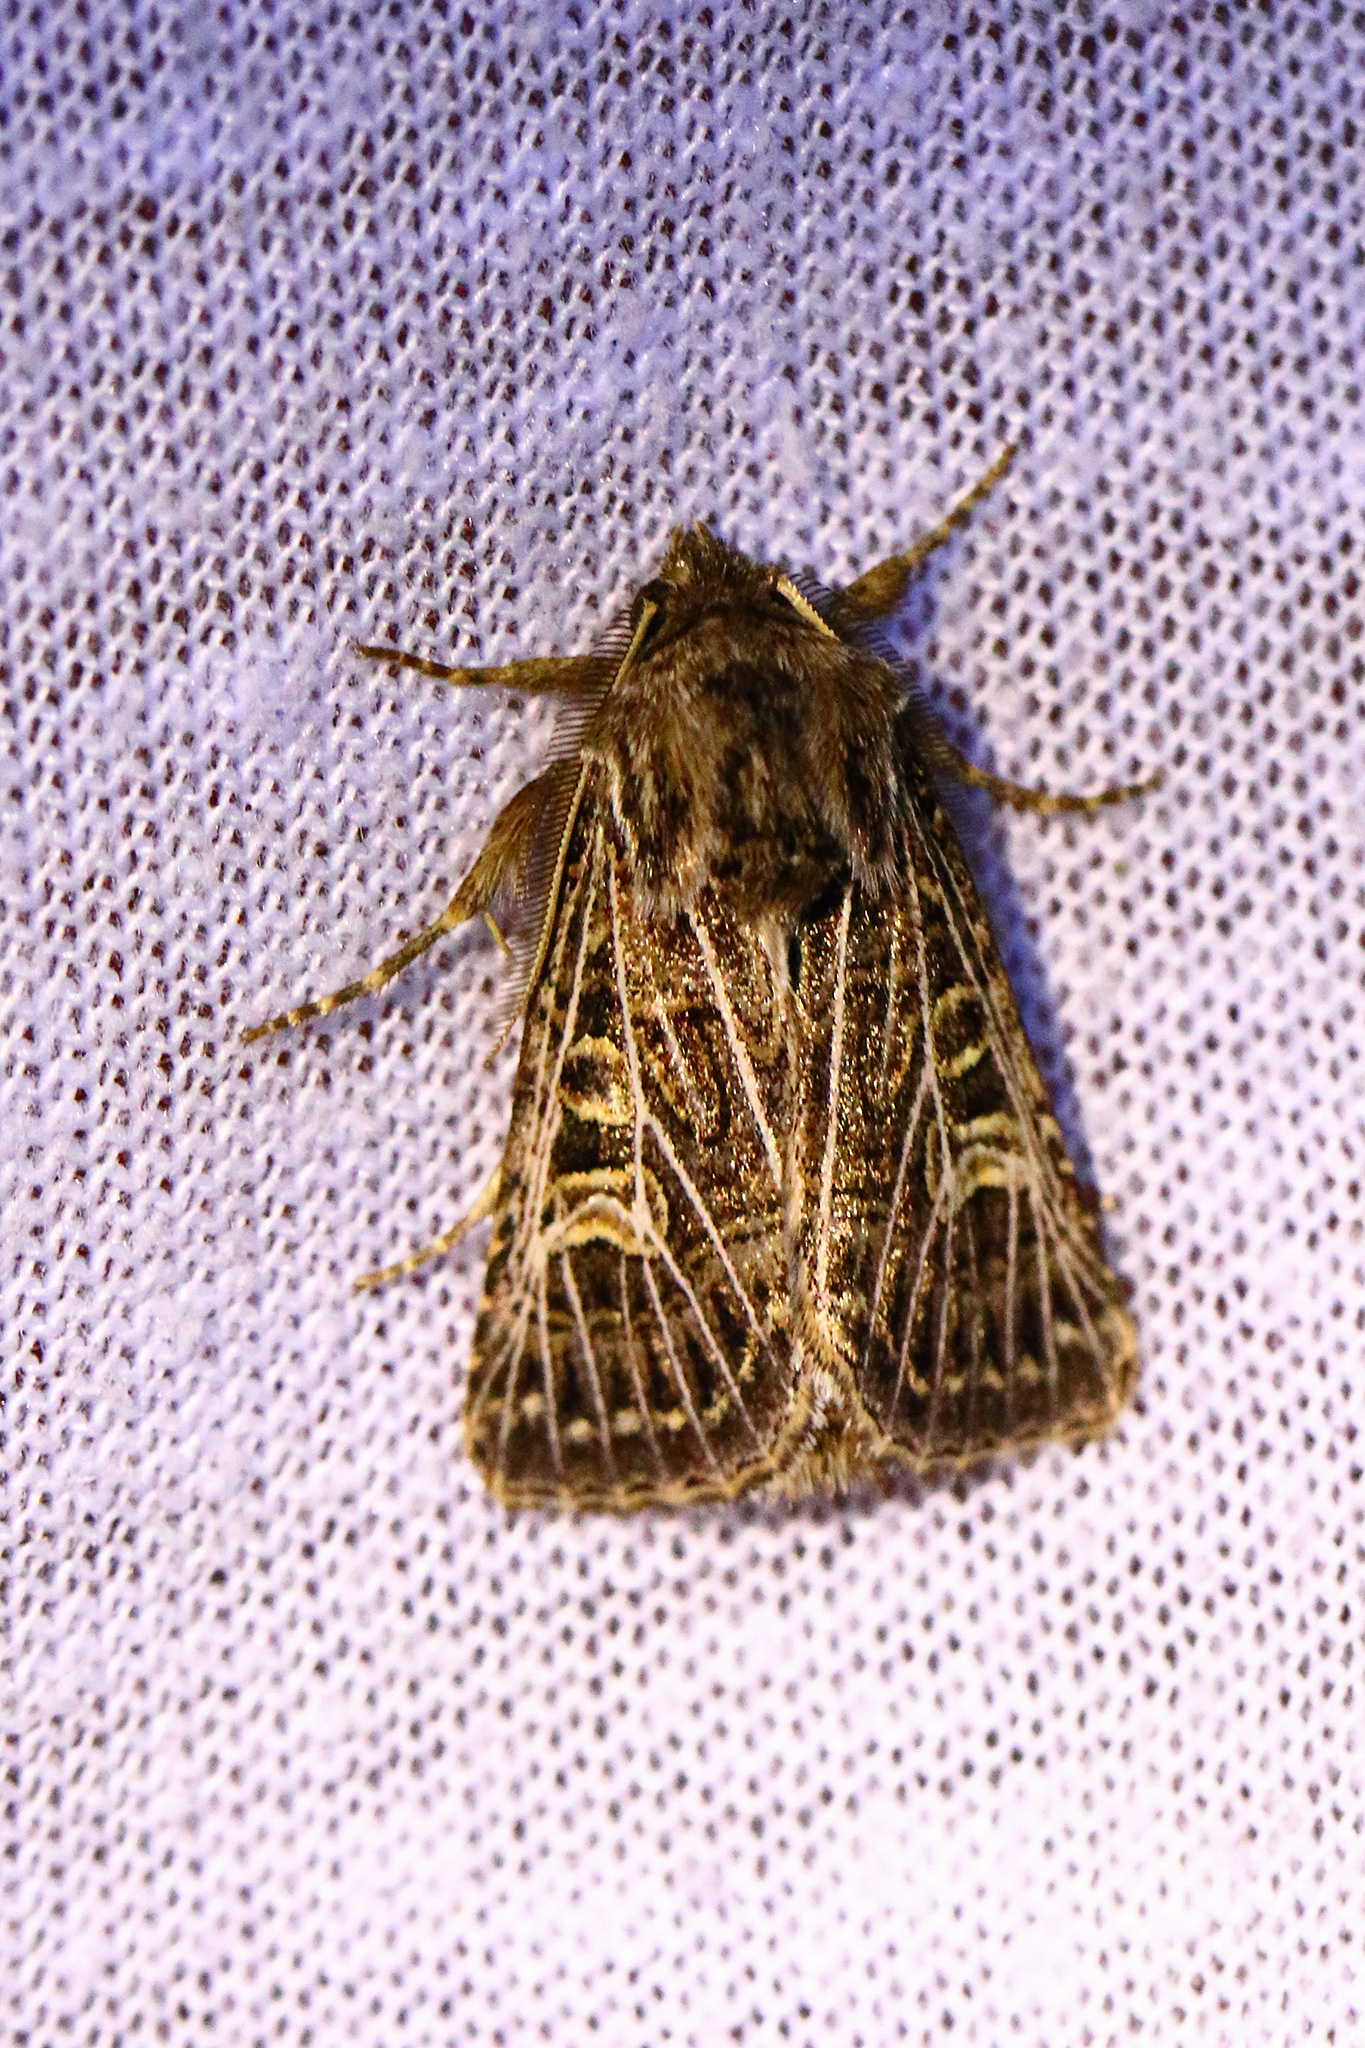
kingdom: Animalia
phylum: Arthropoda
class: Insecta
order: Lepidoptera
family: Noctuidae
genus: Tholera
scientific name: Tholera decimalis
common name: Feathered gothic
